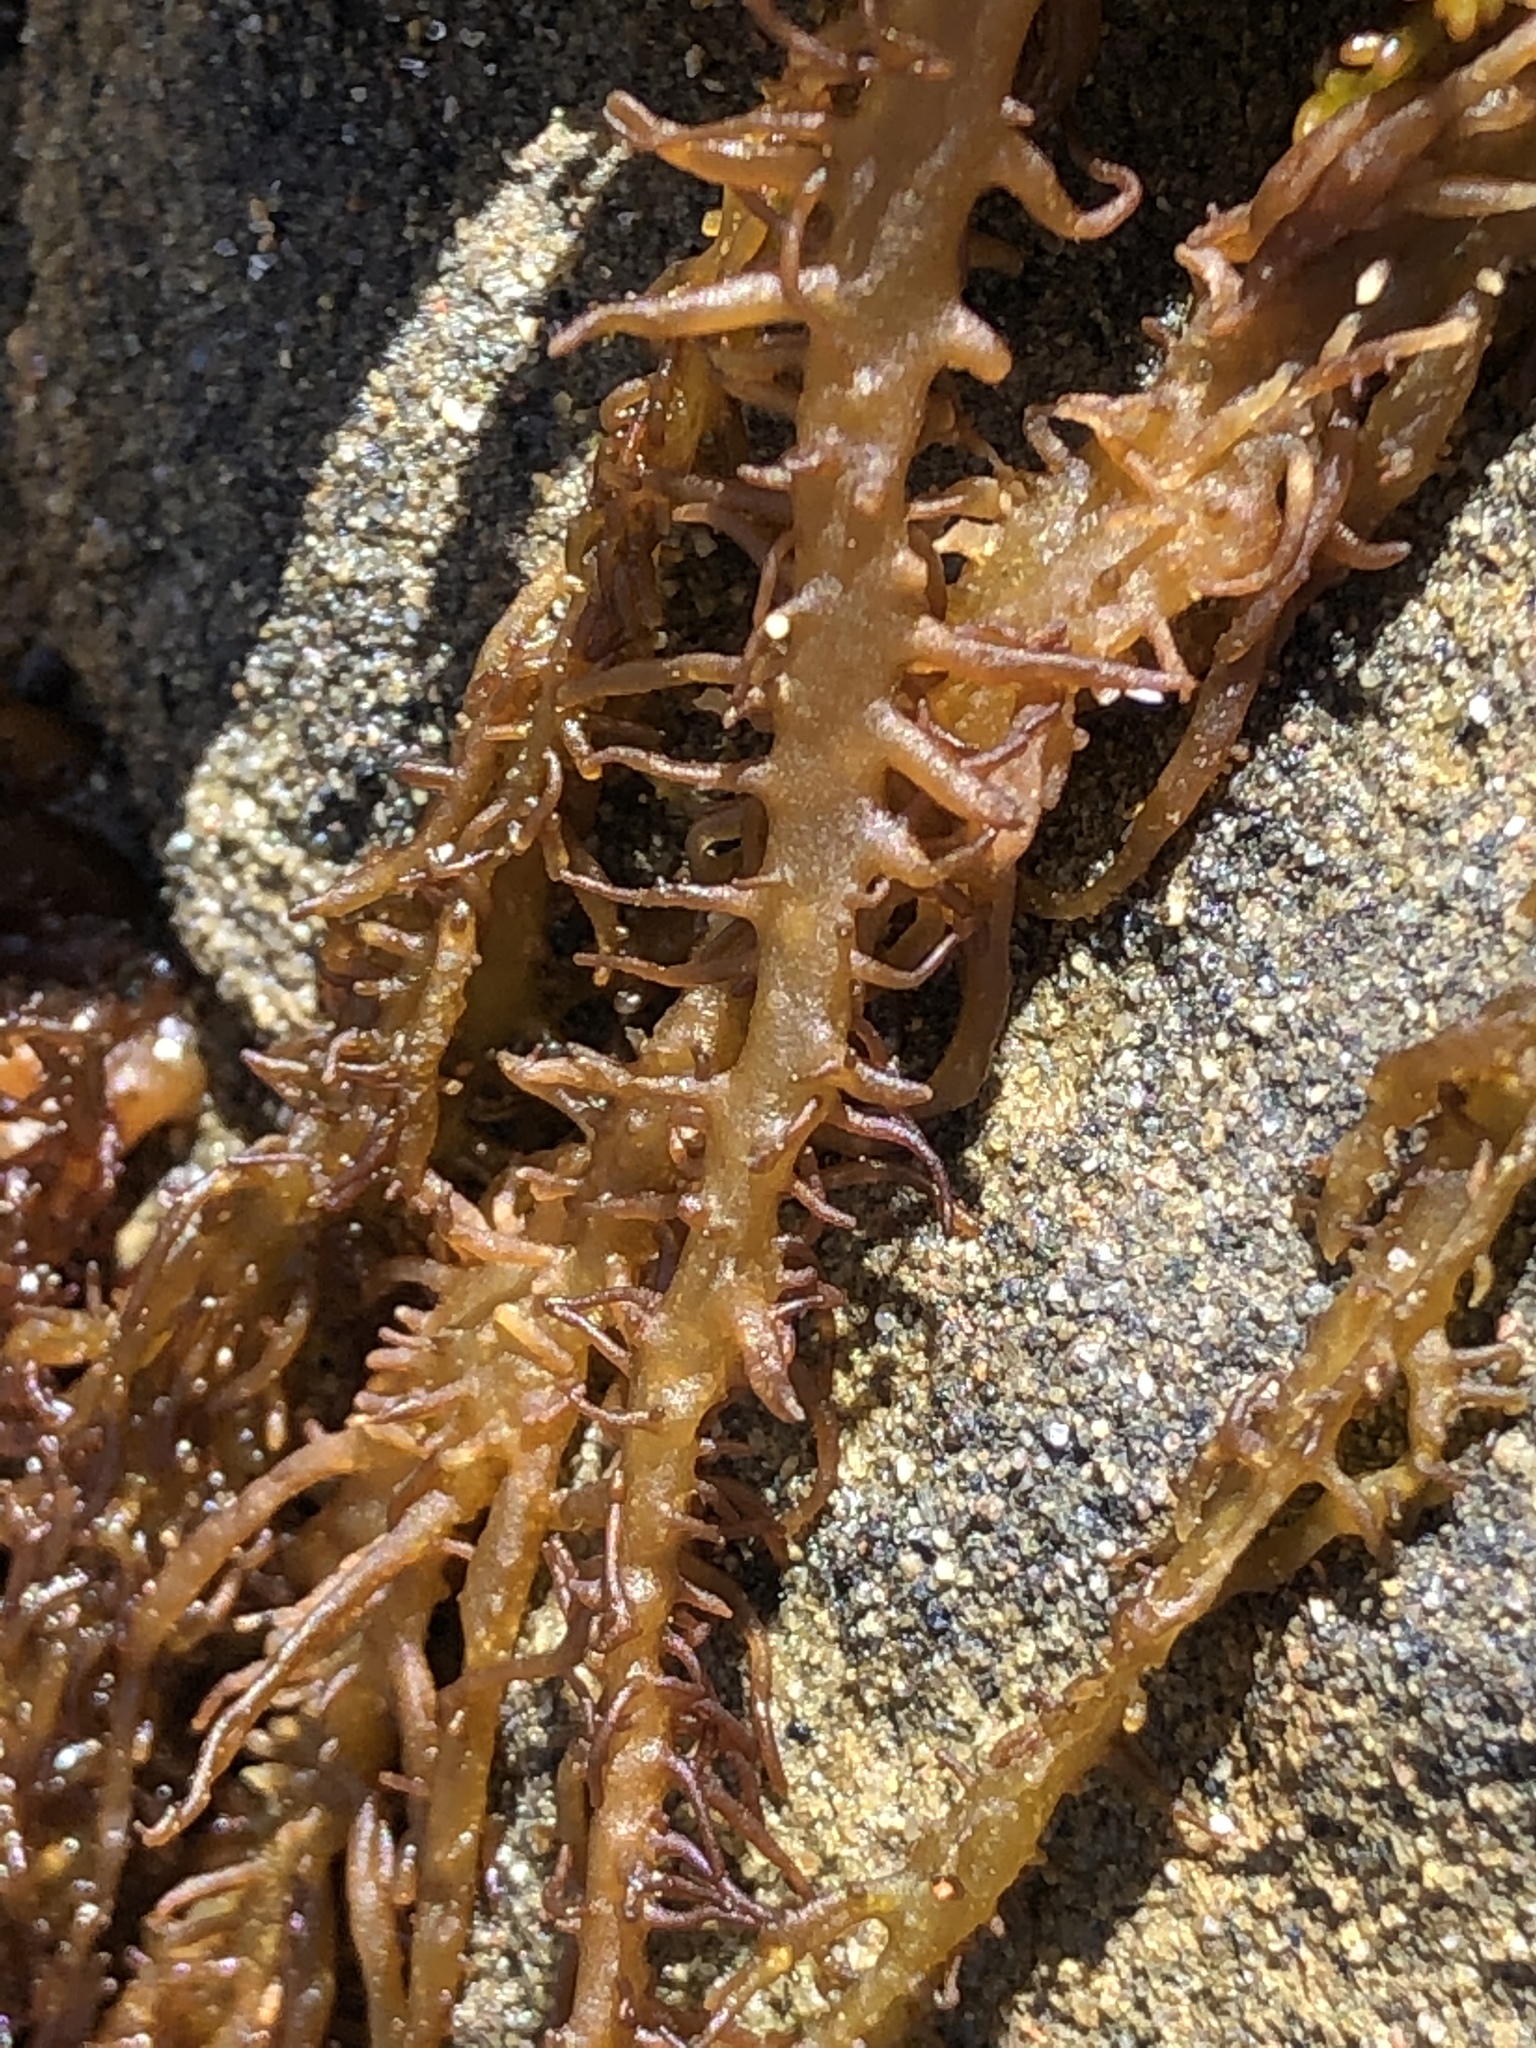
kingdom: Plantae
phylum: Rhodophyta
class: Florideophyceae
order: Nemaliales
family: Liagoraceae
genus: Cumagloia
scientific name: Cumagloia andersonii
